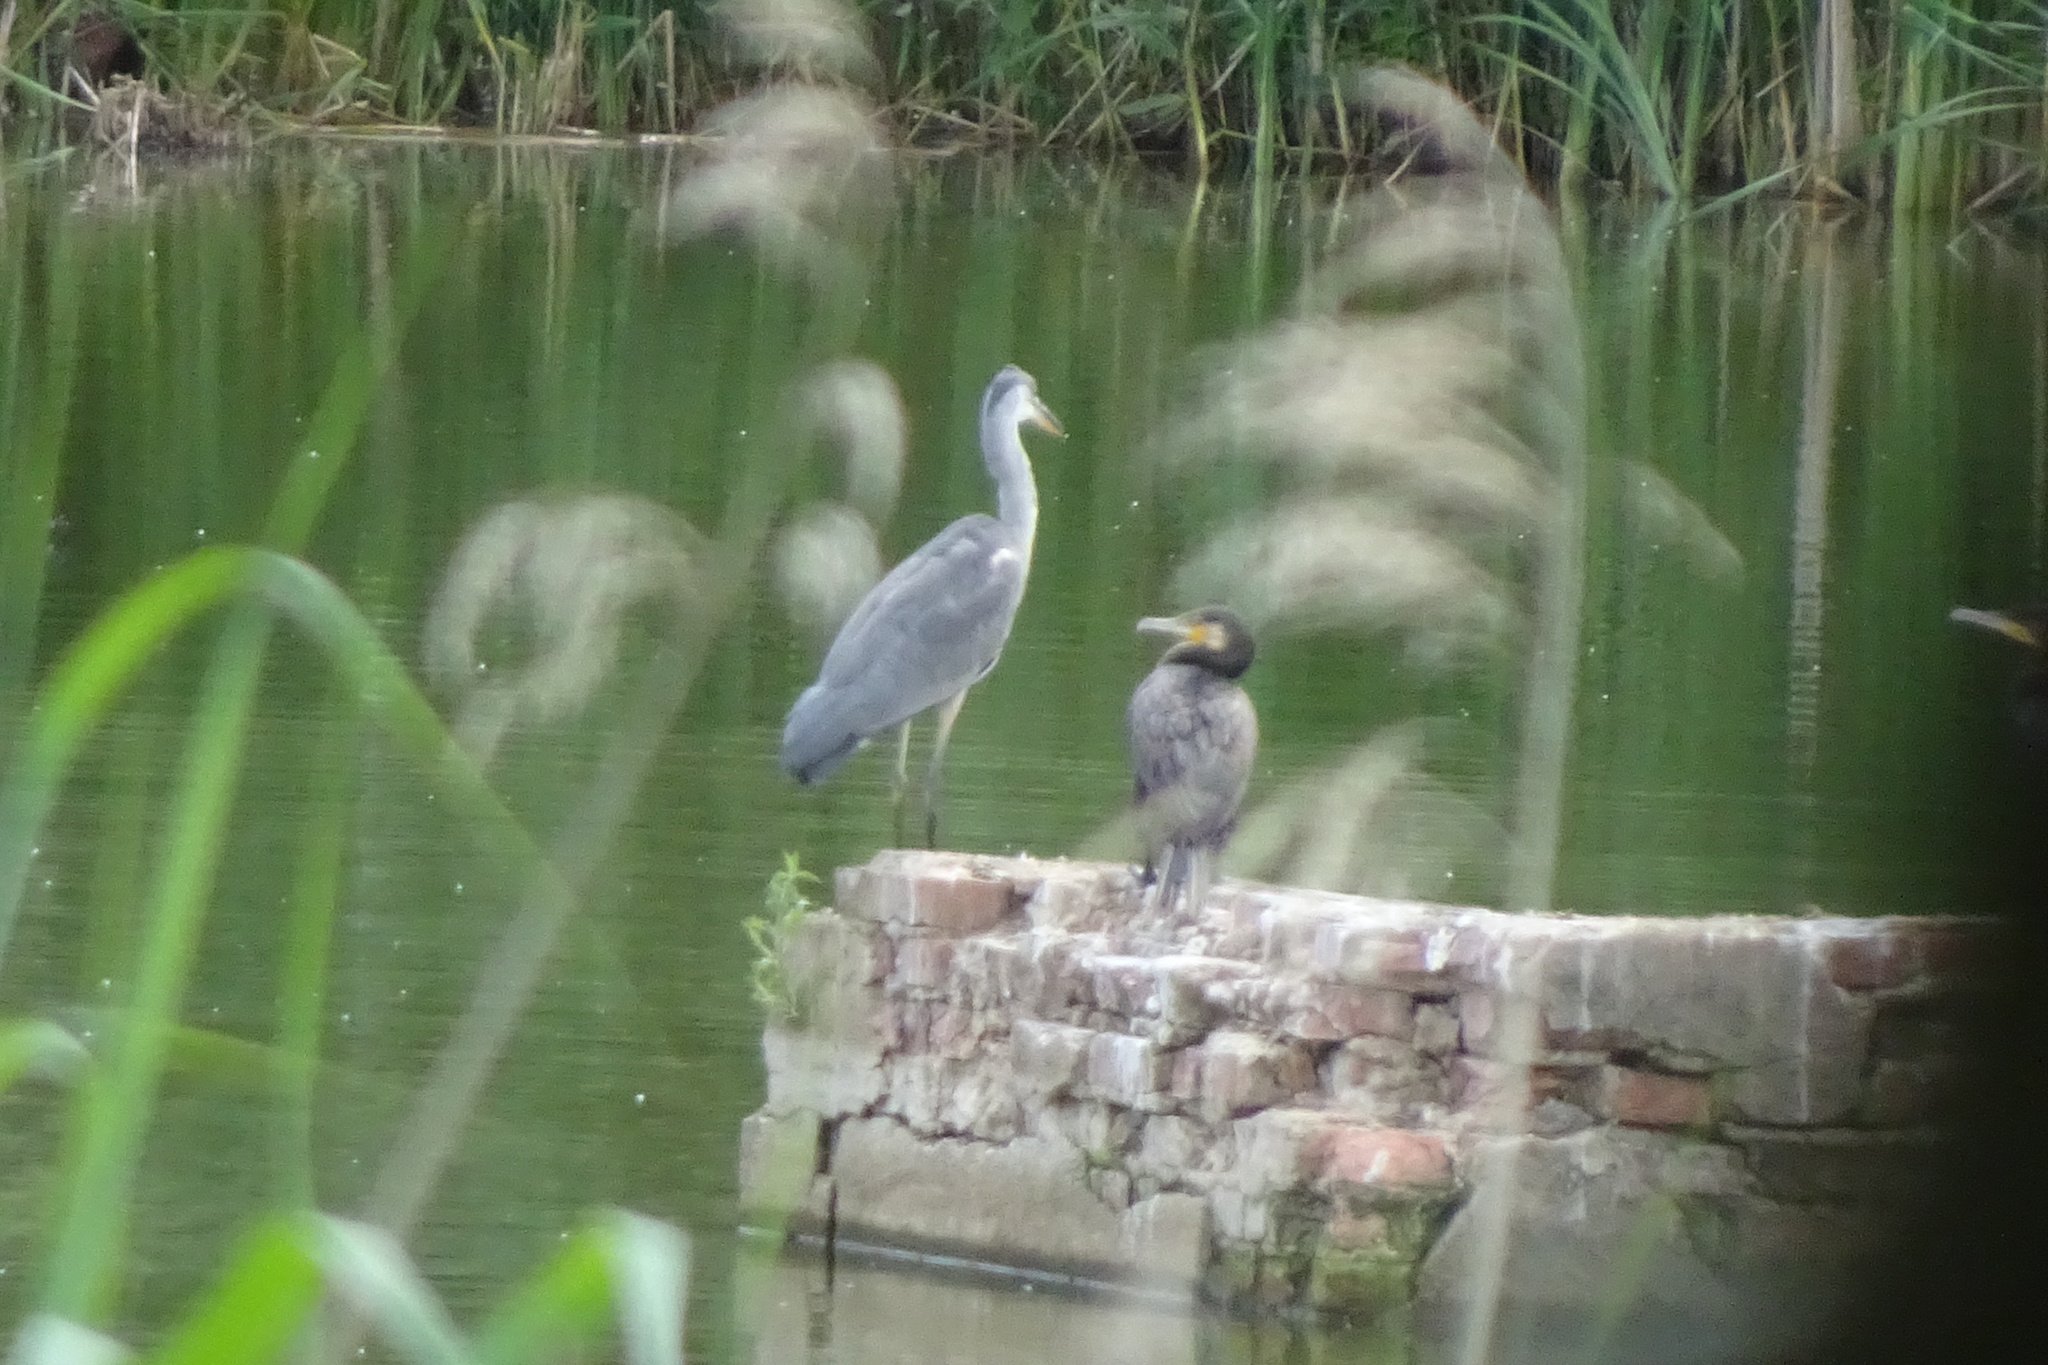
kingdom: Animalia
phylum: Chordata
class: Aves
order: Pelecaniformes
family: Ardeidae
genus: Ardea
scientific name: Ardea cinerea
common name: Grey heron
